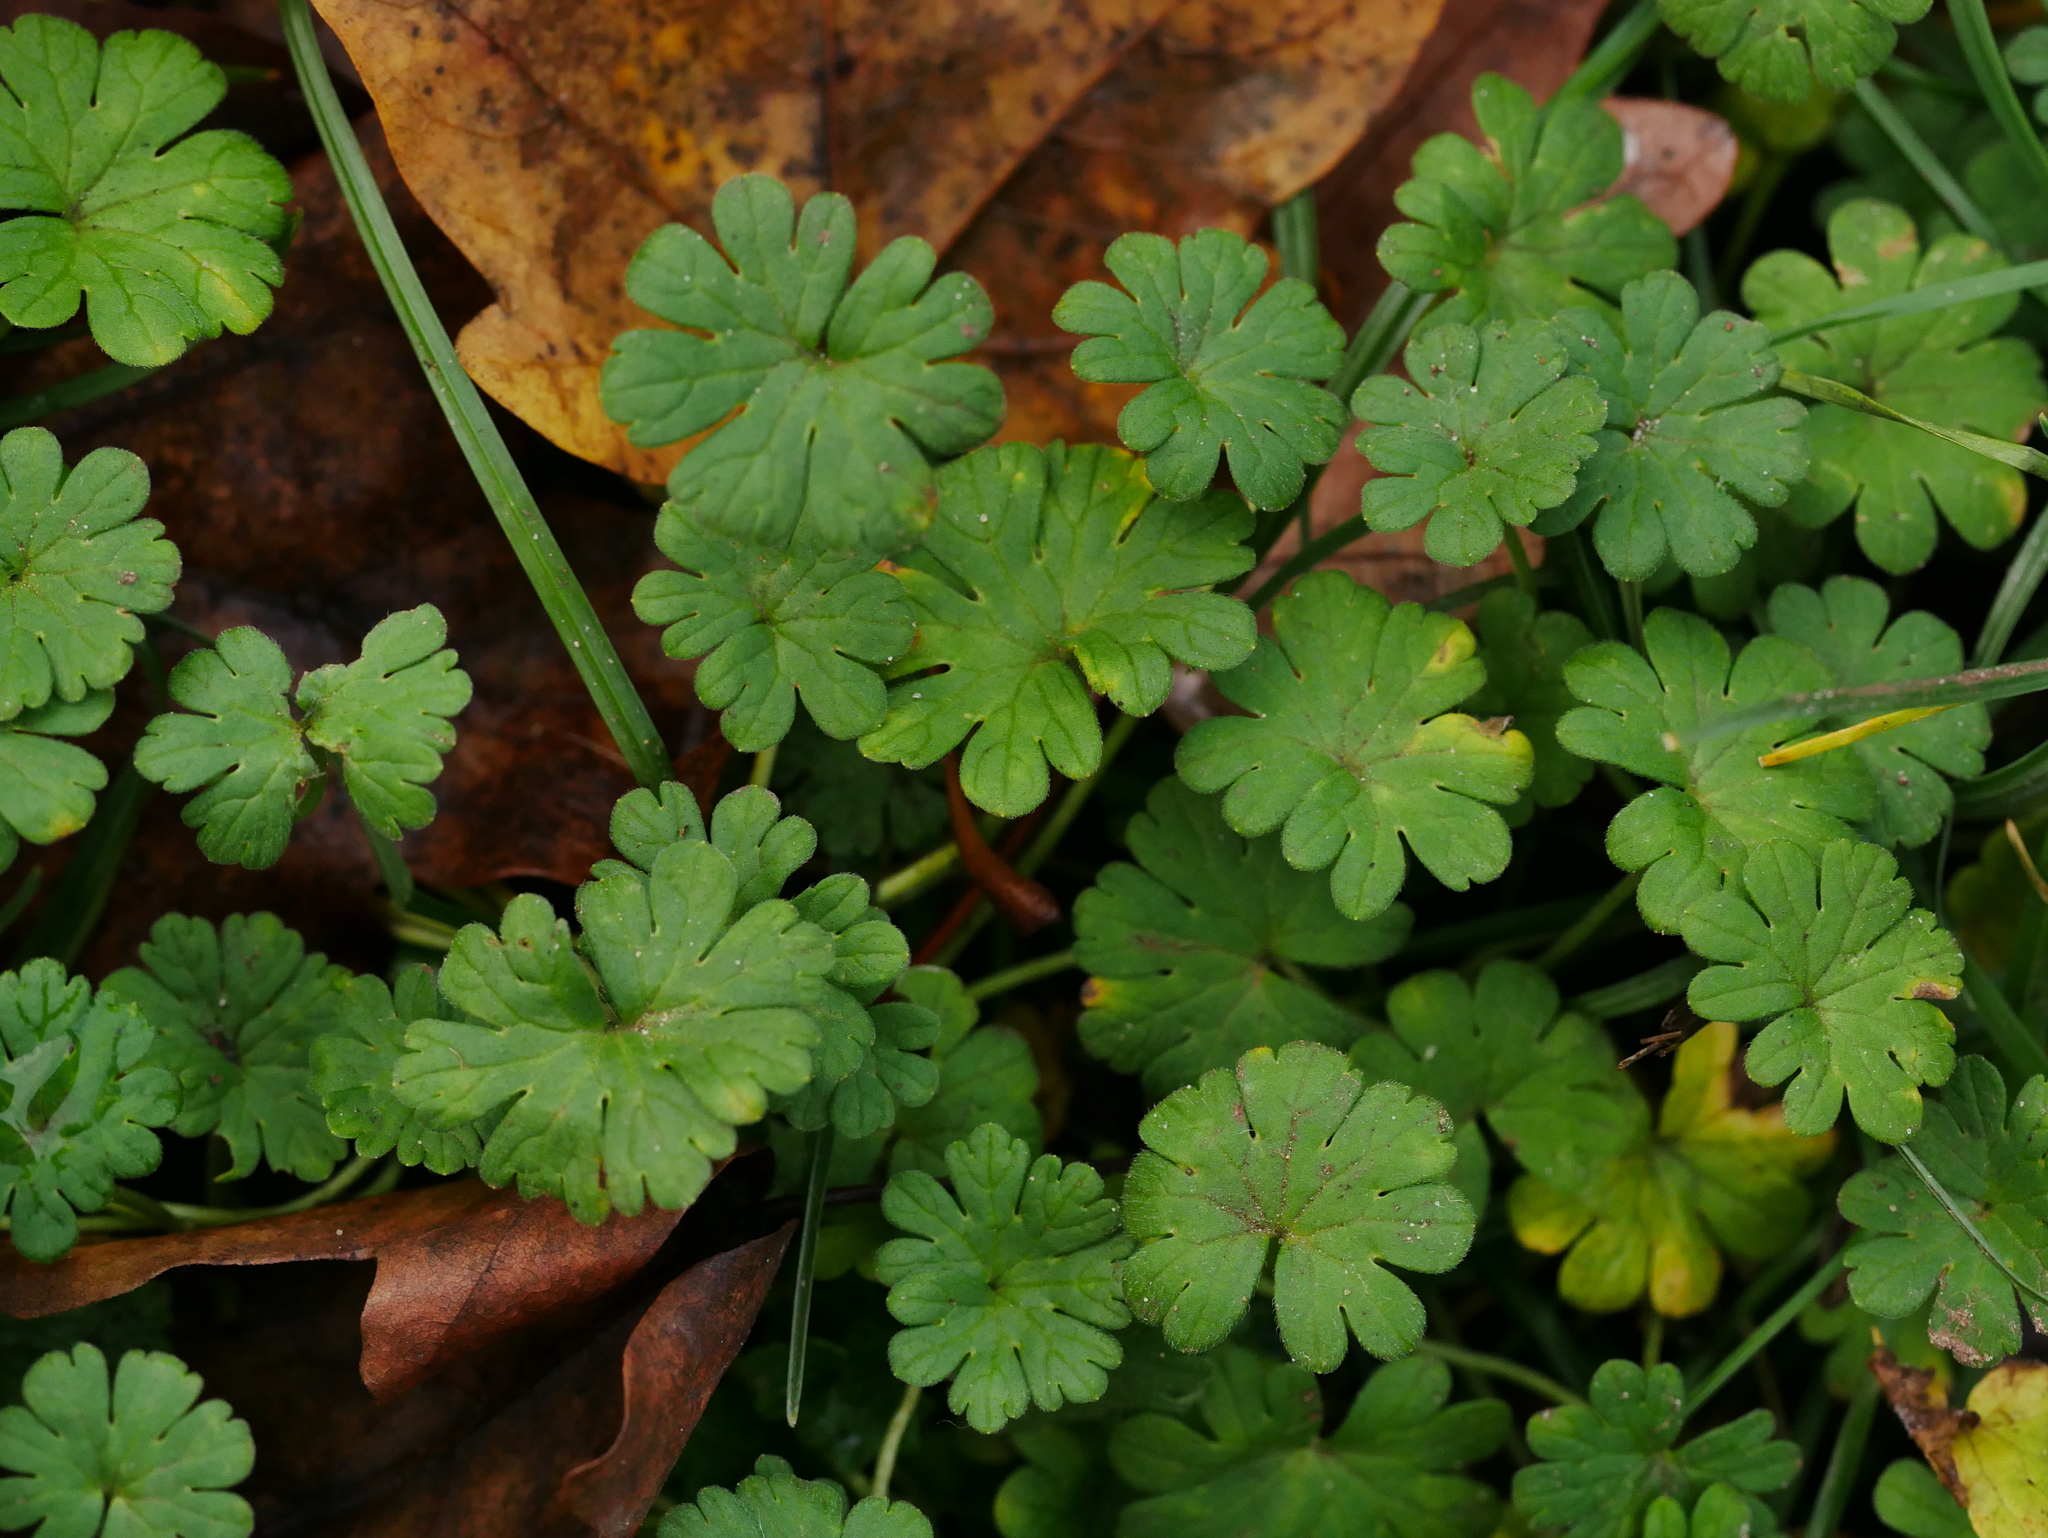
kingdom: Plantae
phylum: Tracheophyta
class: Magnoliopsida
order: Geraniales
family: Geraniaceae
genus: Geranium
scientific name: Geranium molle
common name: Dove's-foot crane's-bill
